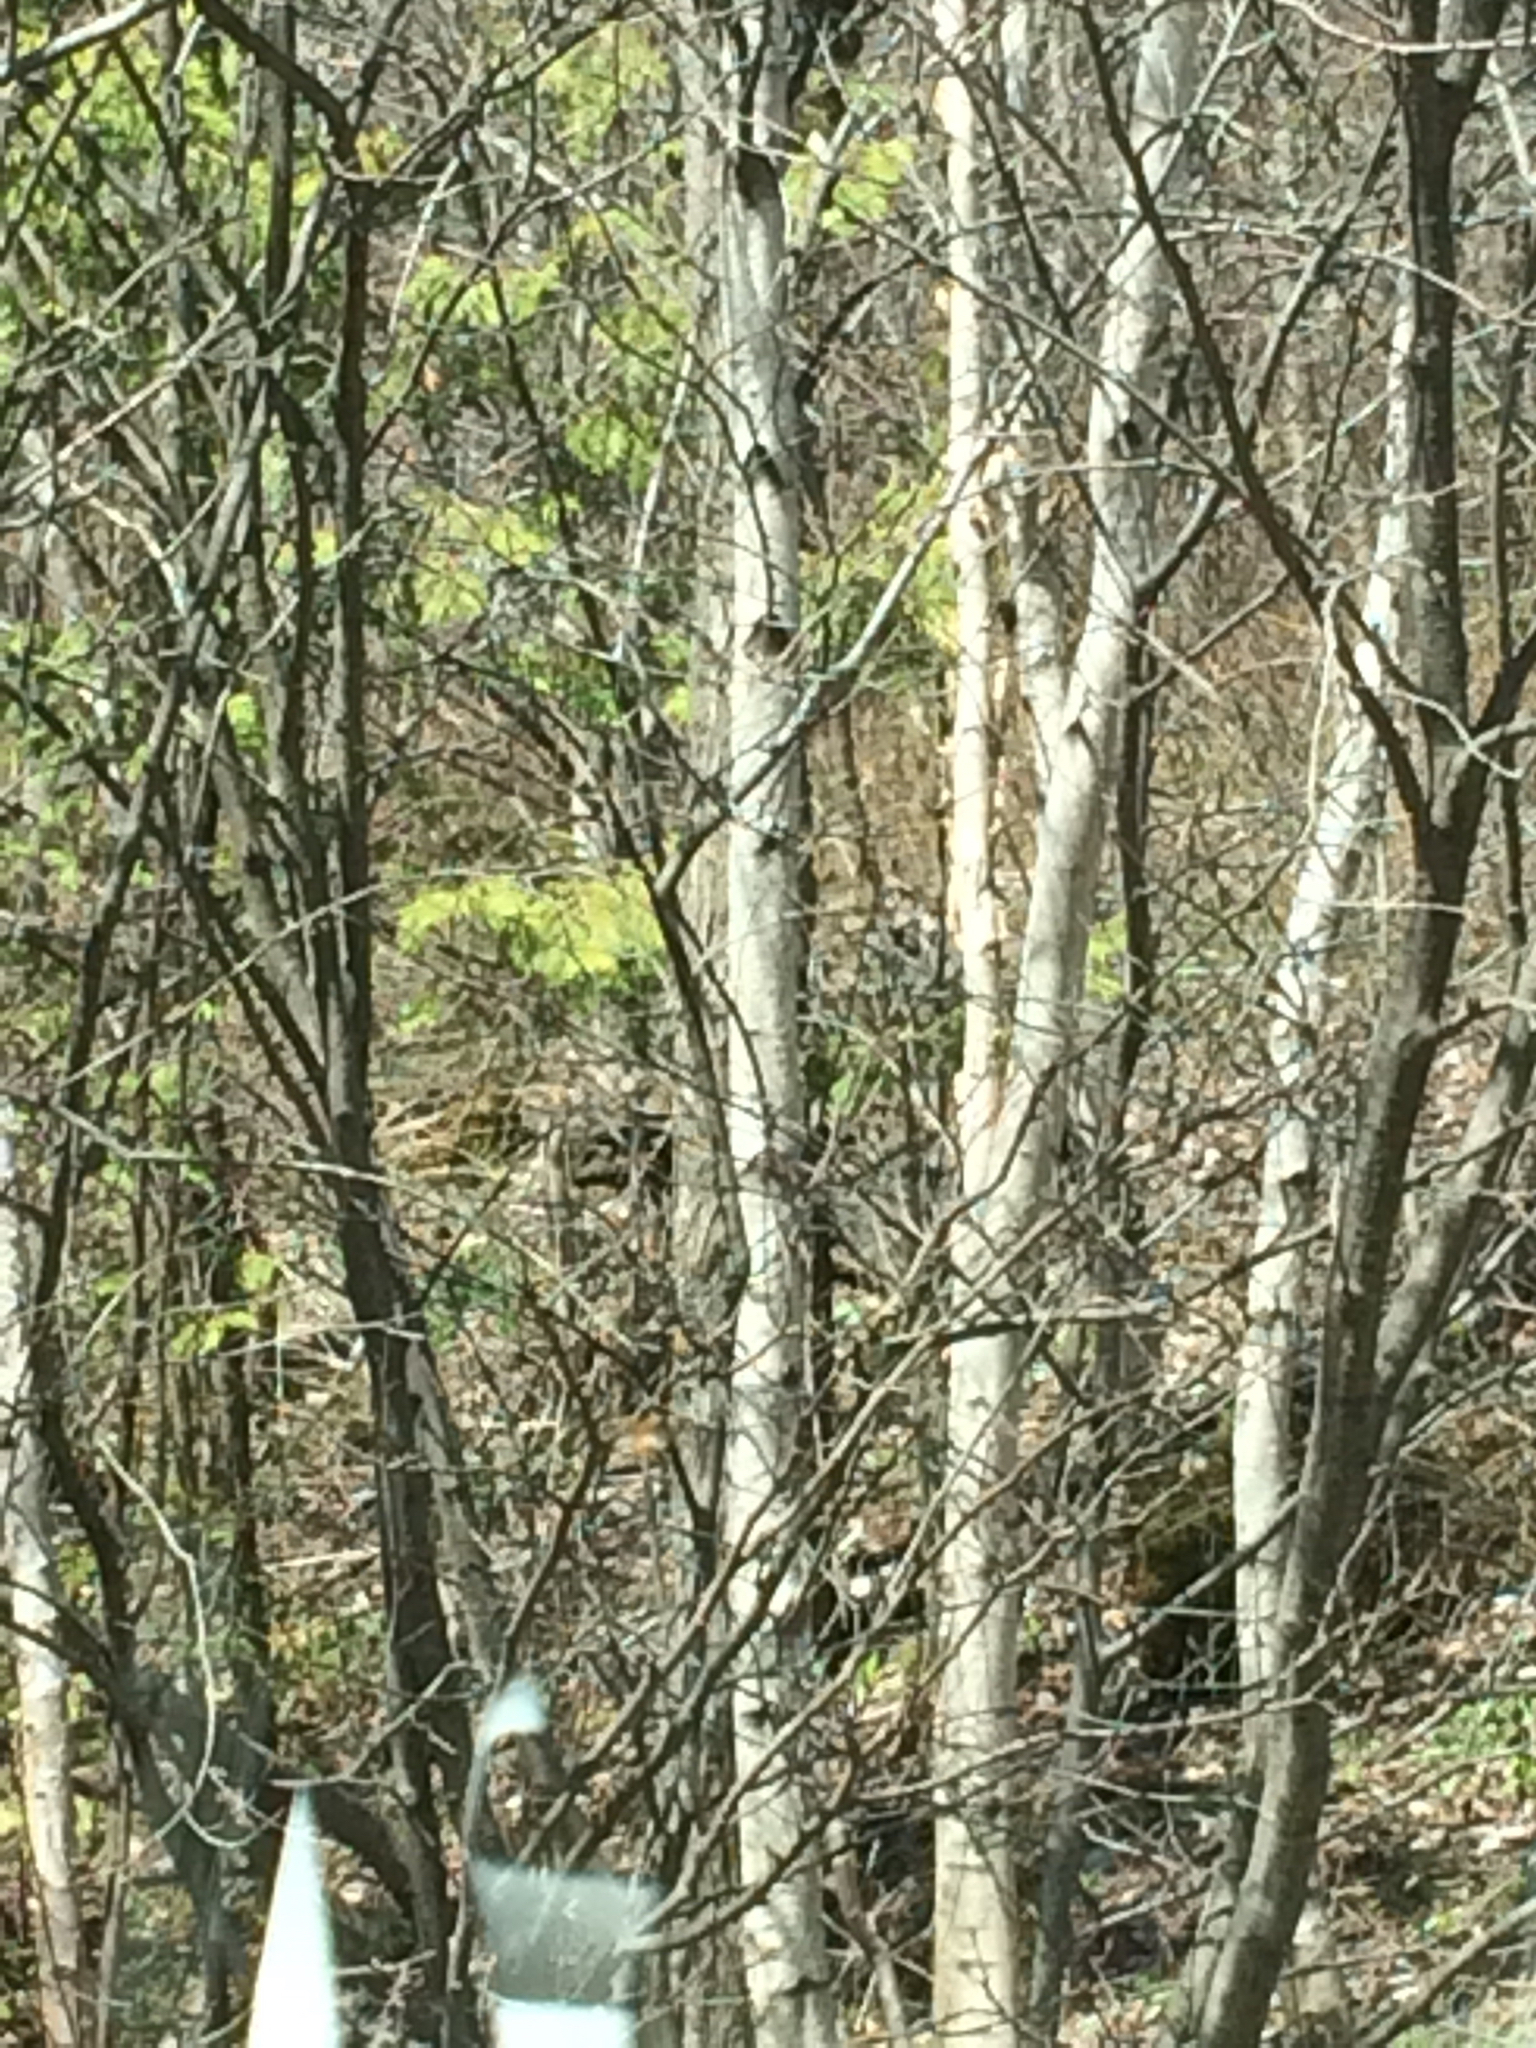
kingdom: Plantae
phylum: Tracheophyta
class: Magnoliopsida
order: Fagales
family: Betulaceae
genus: Betula
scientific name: Betula populifolia
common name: Fire birch
